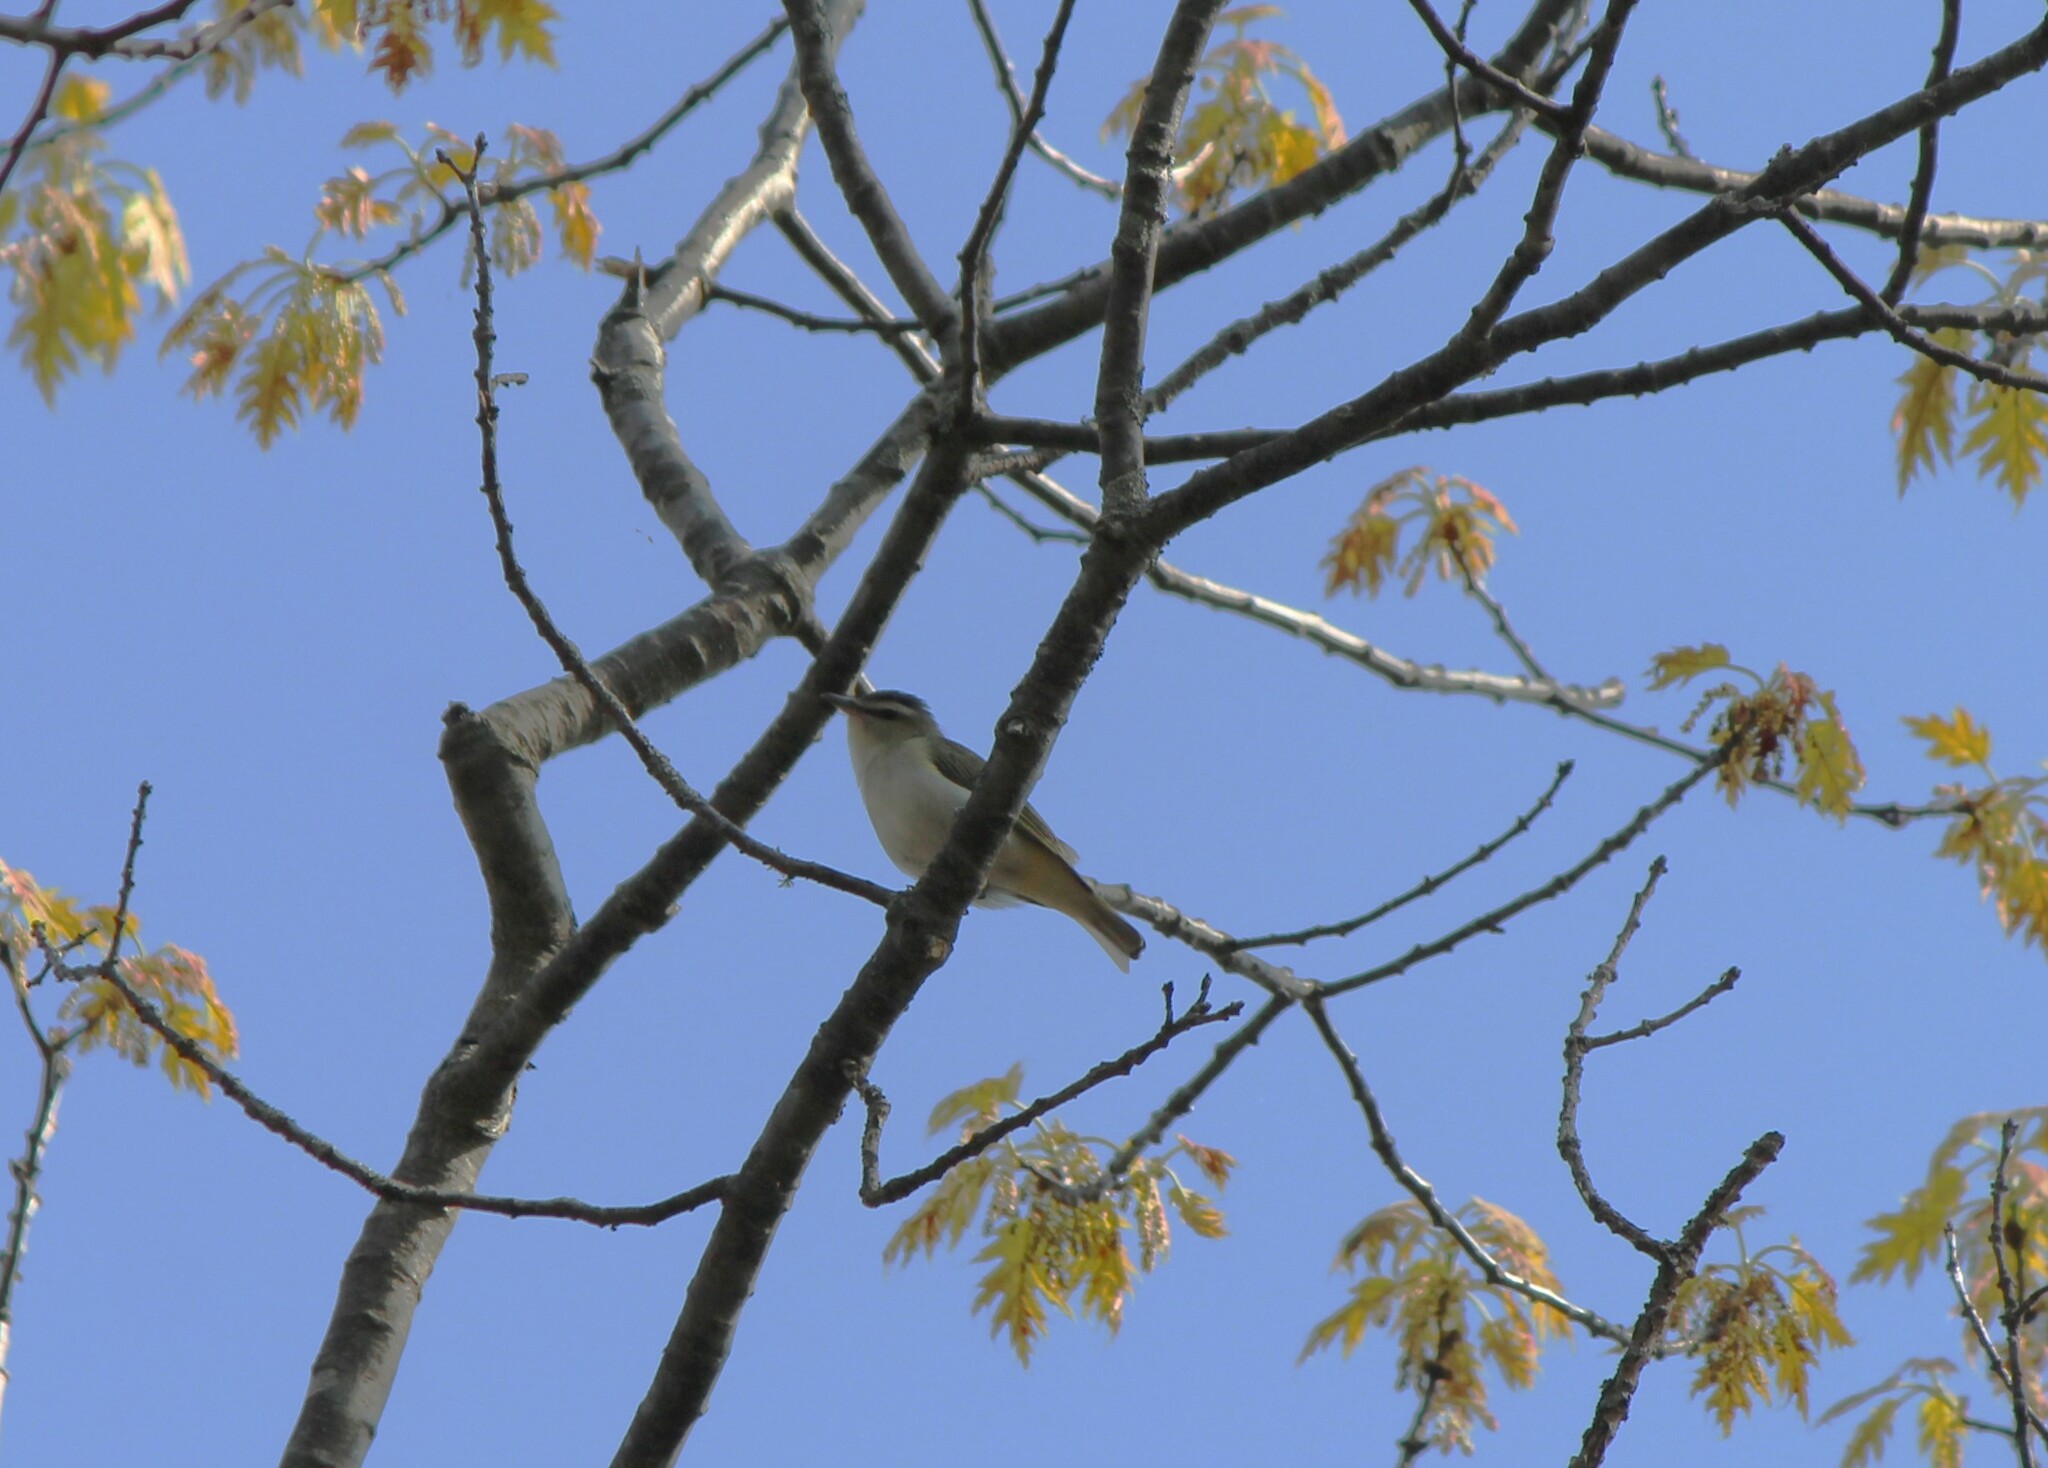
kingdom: Animalia
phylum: Chordata
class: Aves
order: Passeriformes
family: Vireonidae
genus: Vireo
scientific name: Vireo olivaceus
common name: Red-eyed vireo
